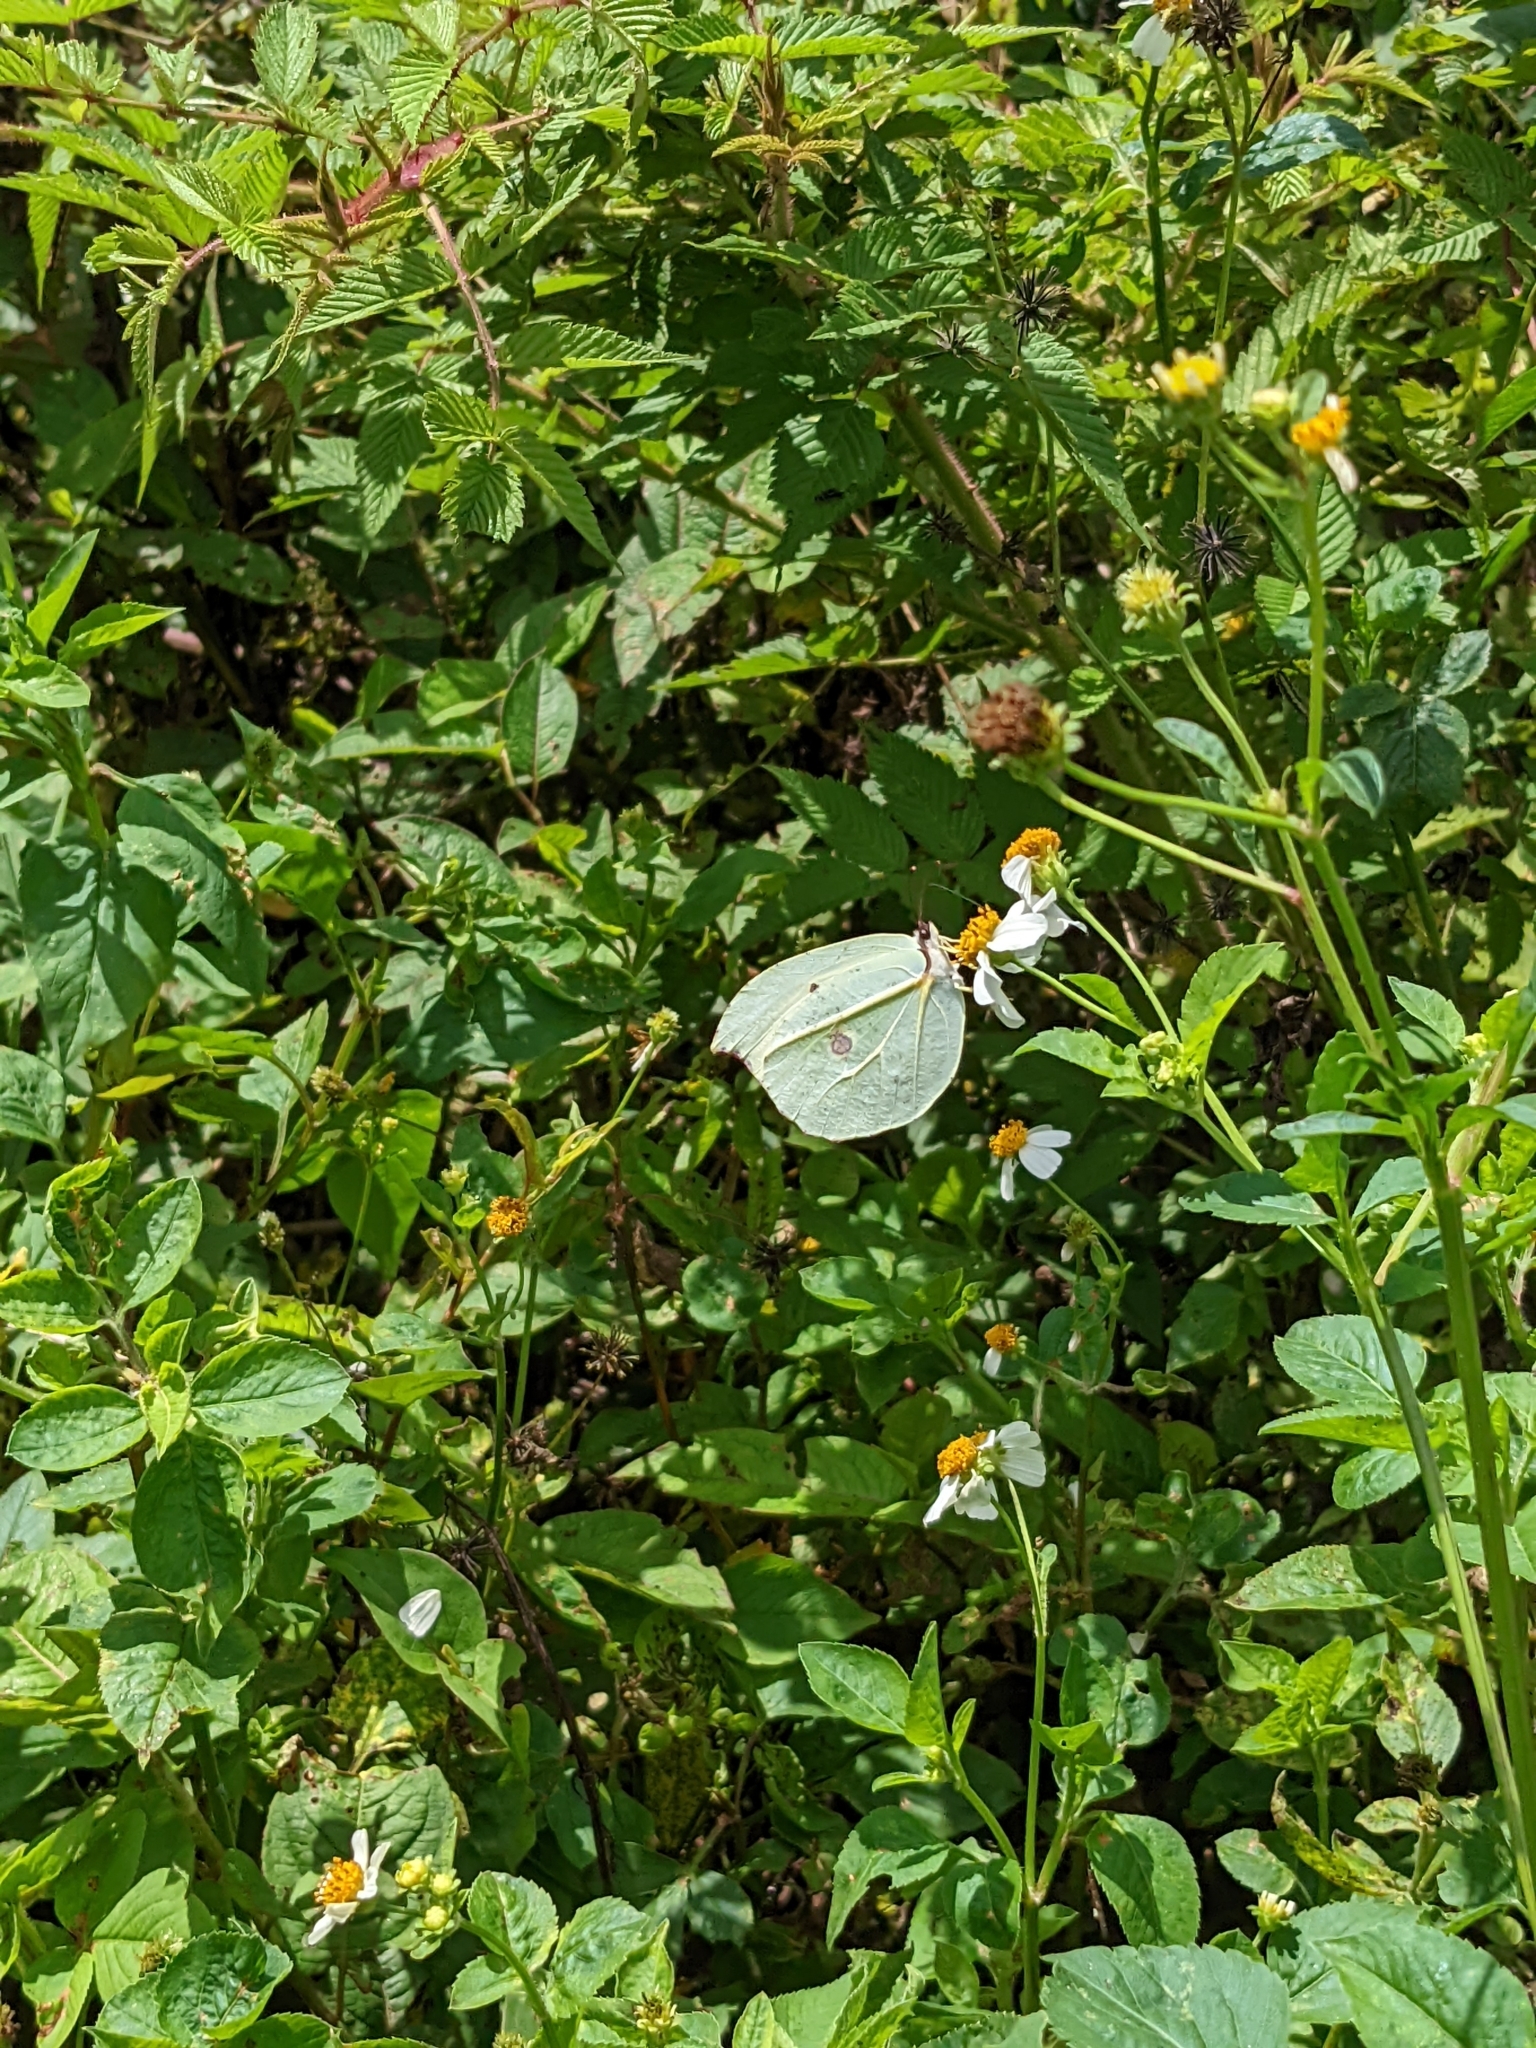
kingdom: Animalia
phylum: Arthropoda
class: Insecta
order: Lepidoptera
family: Pieridae
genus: Gonepteryx
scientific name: Gonepteryx amintha
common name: Orange brimstone
